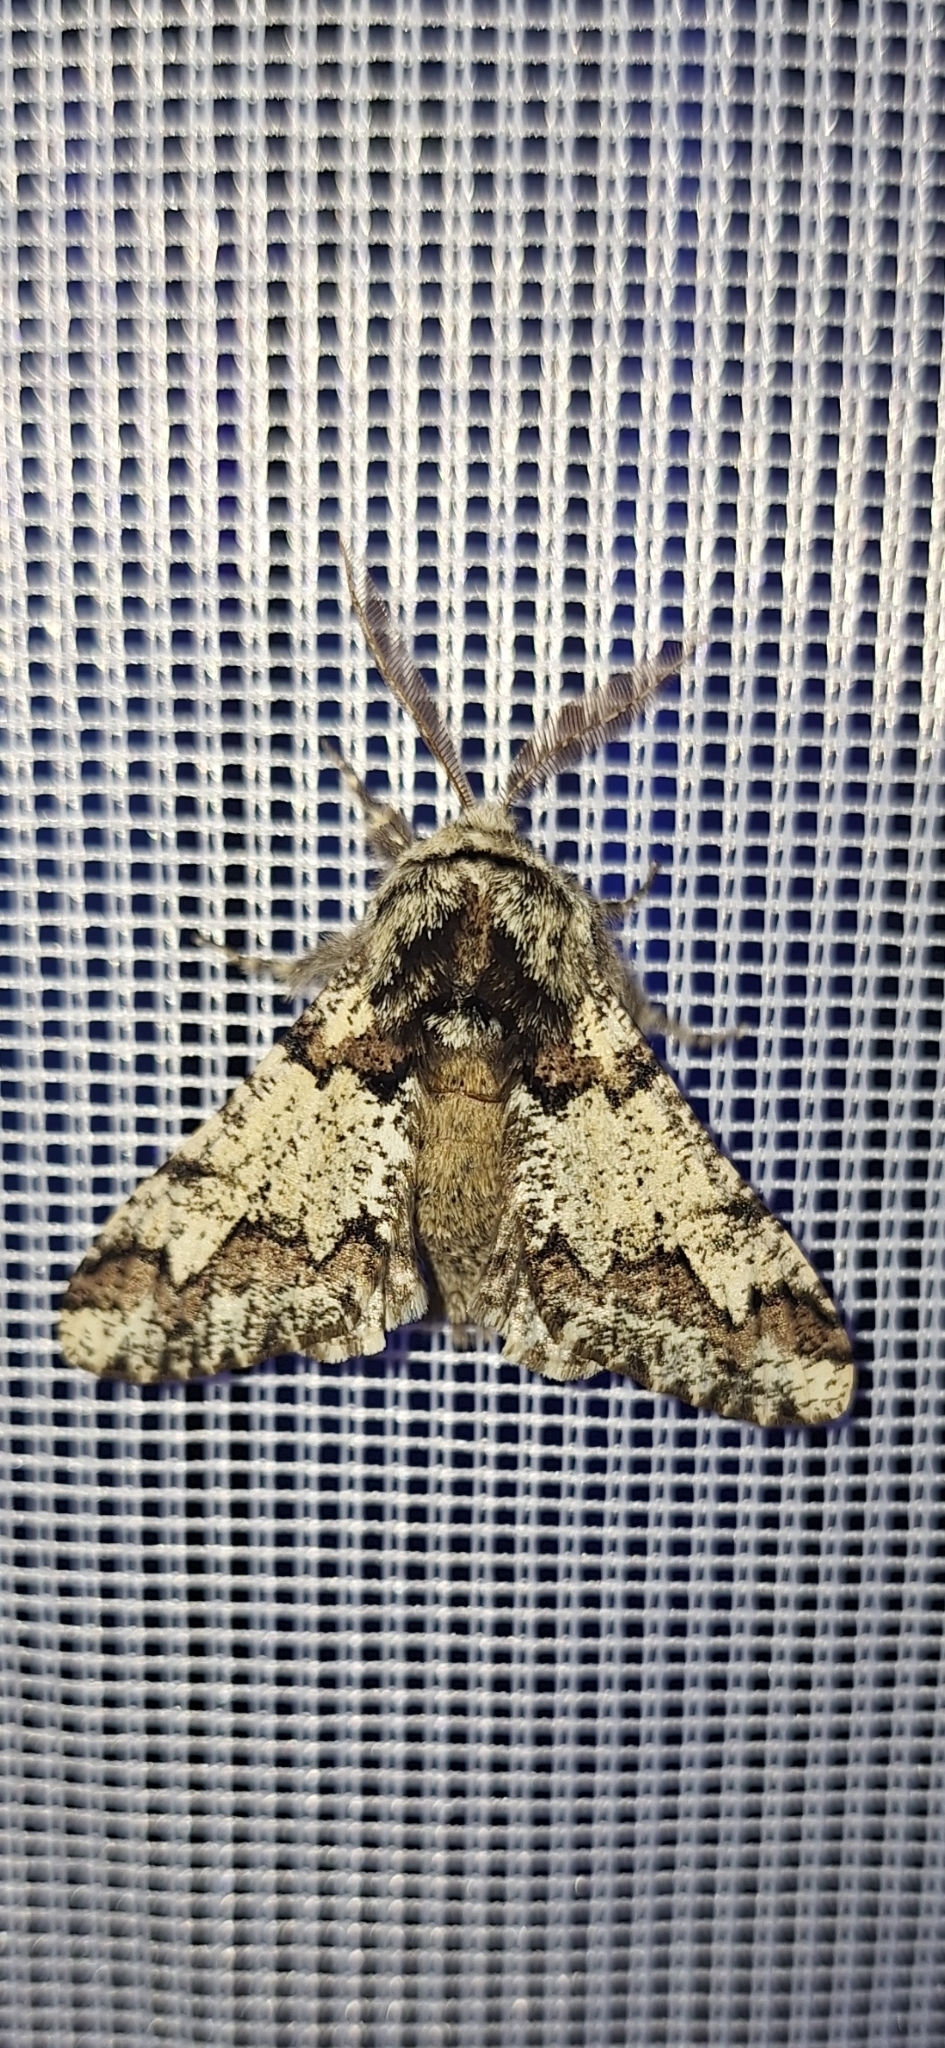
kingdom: Animalia
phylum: Arthropoda
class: Insecta
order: Lepidoptera
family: Geometridae
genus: Biston
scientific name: Biston strataria
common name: Oak beauty
